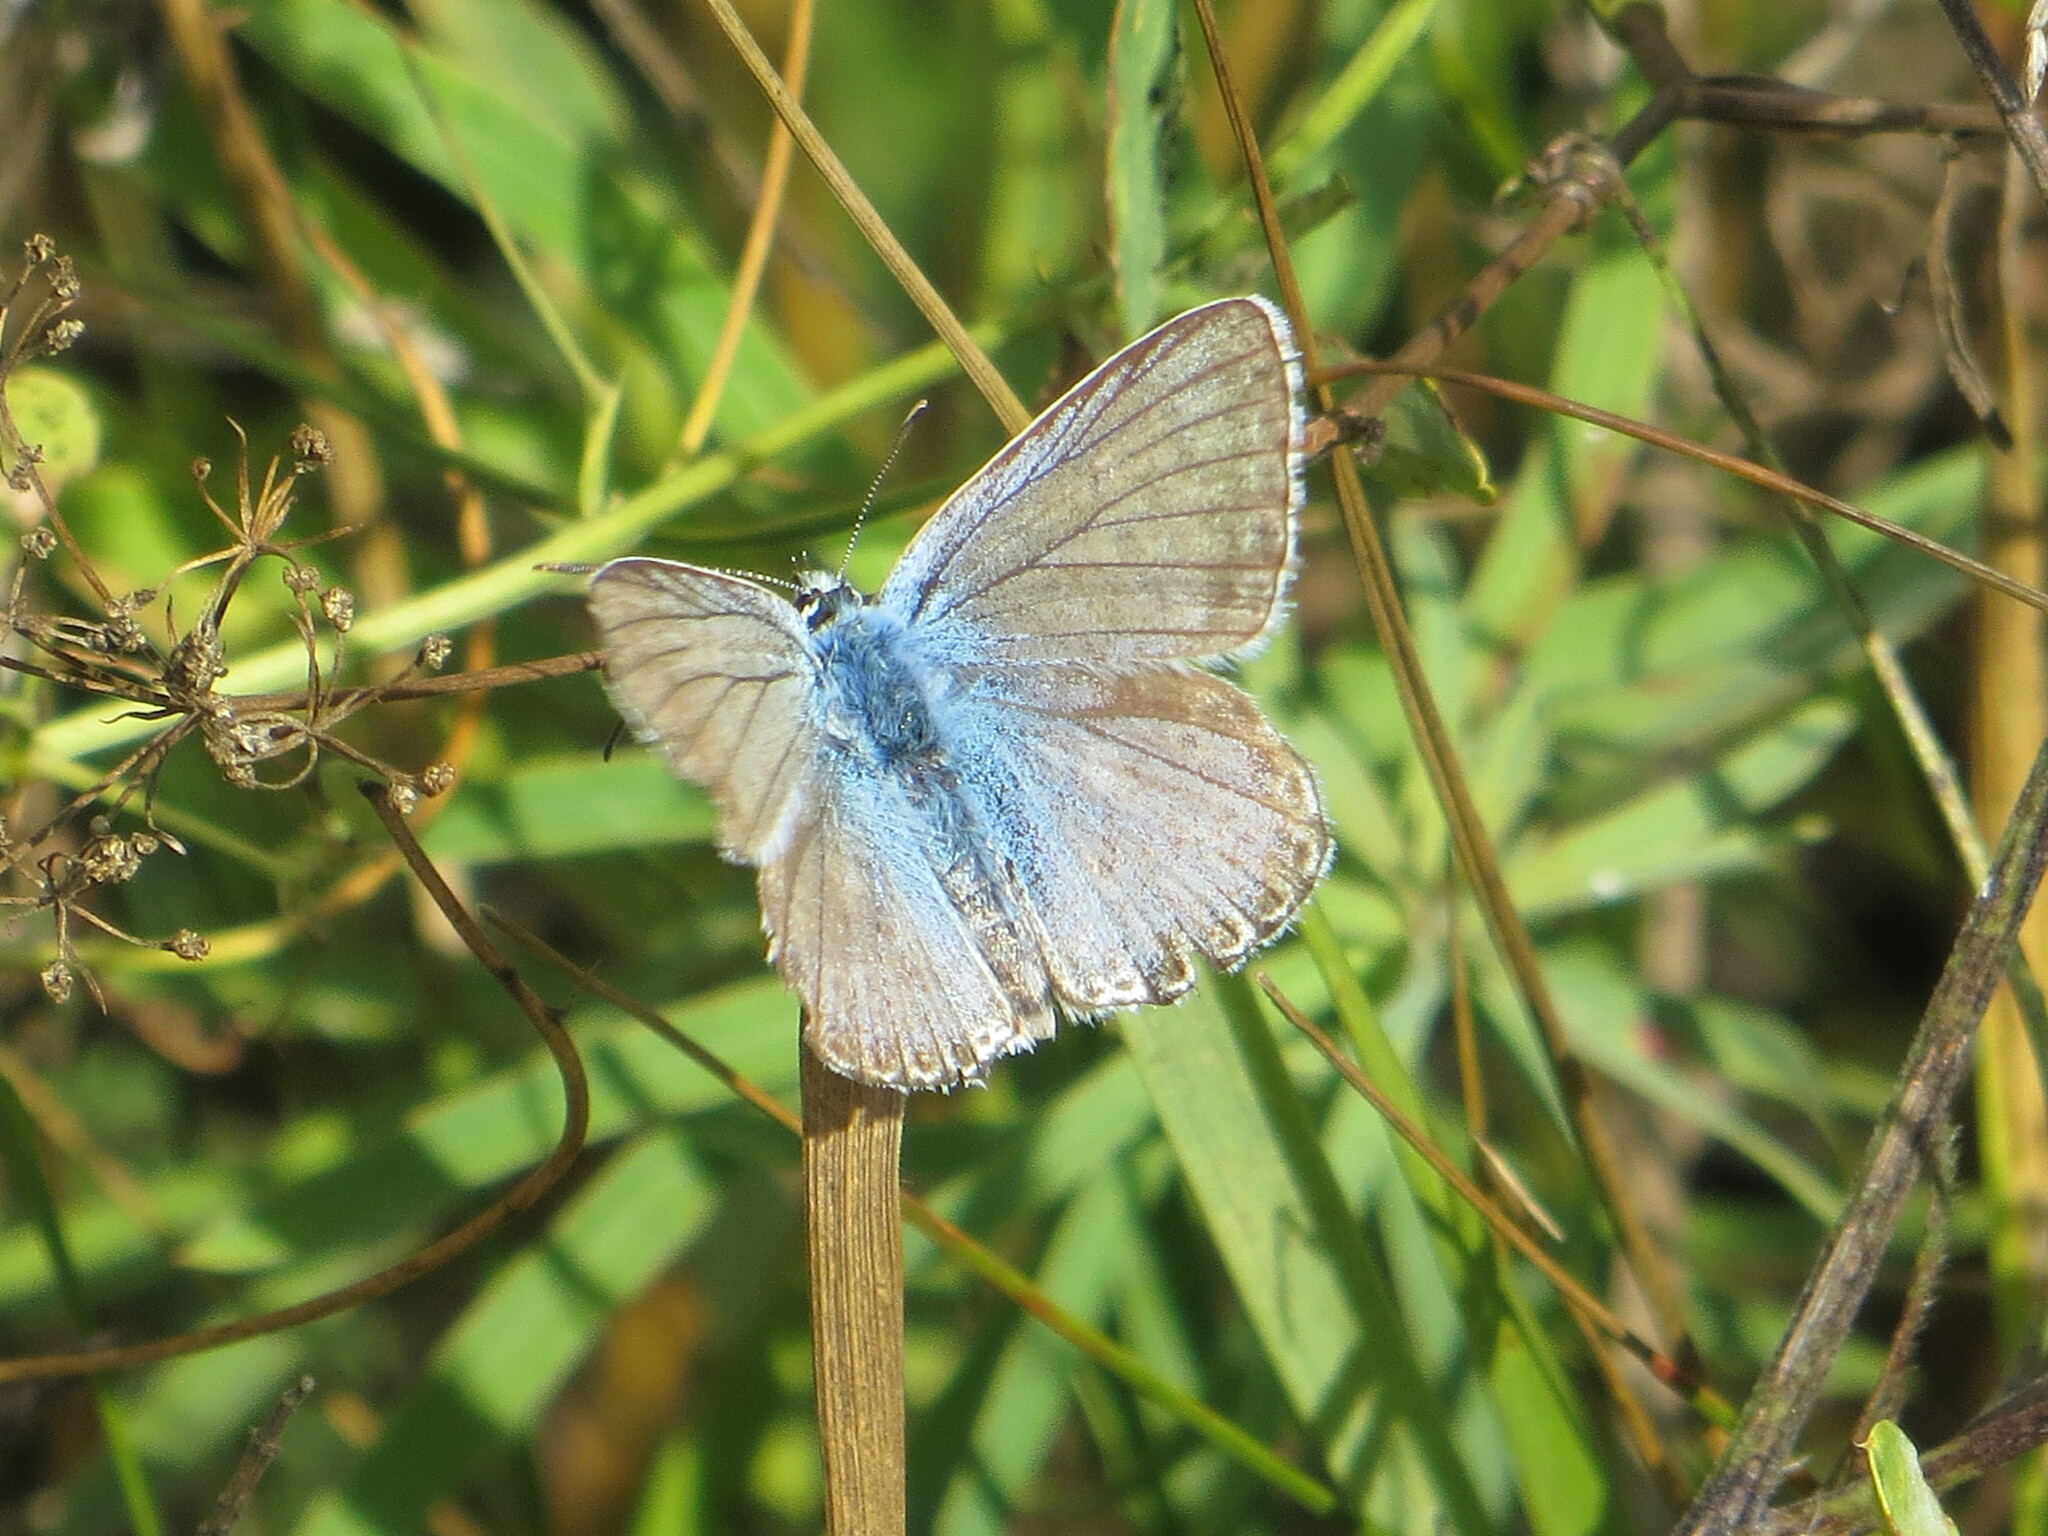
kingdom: Animalia
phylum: Arthropoda
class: Insecta
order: Lepidoptera
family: Lycaenidae
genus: Lysandra
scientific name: Lysandra coridon
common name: Chalkhill blue
